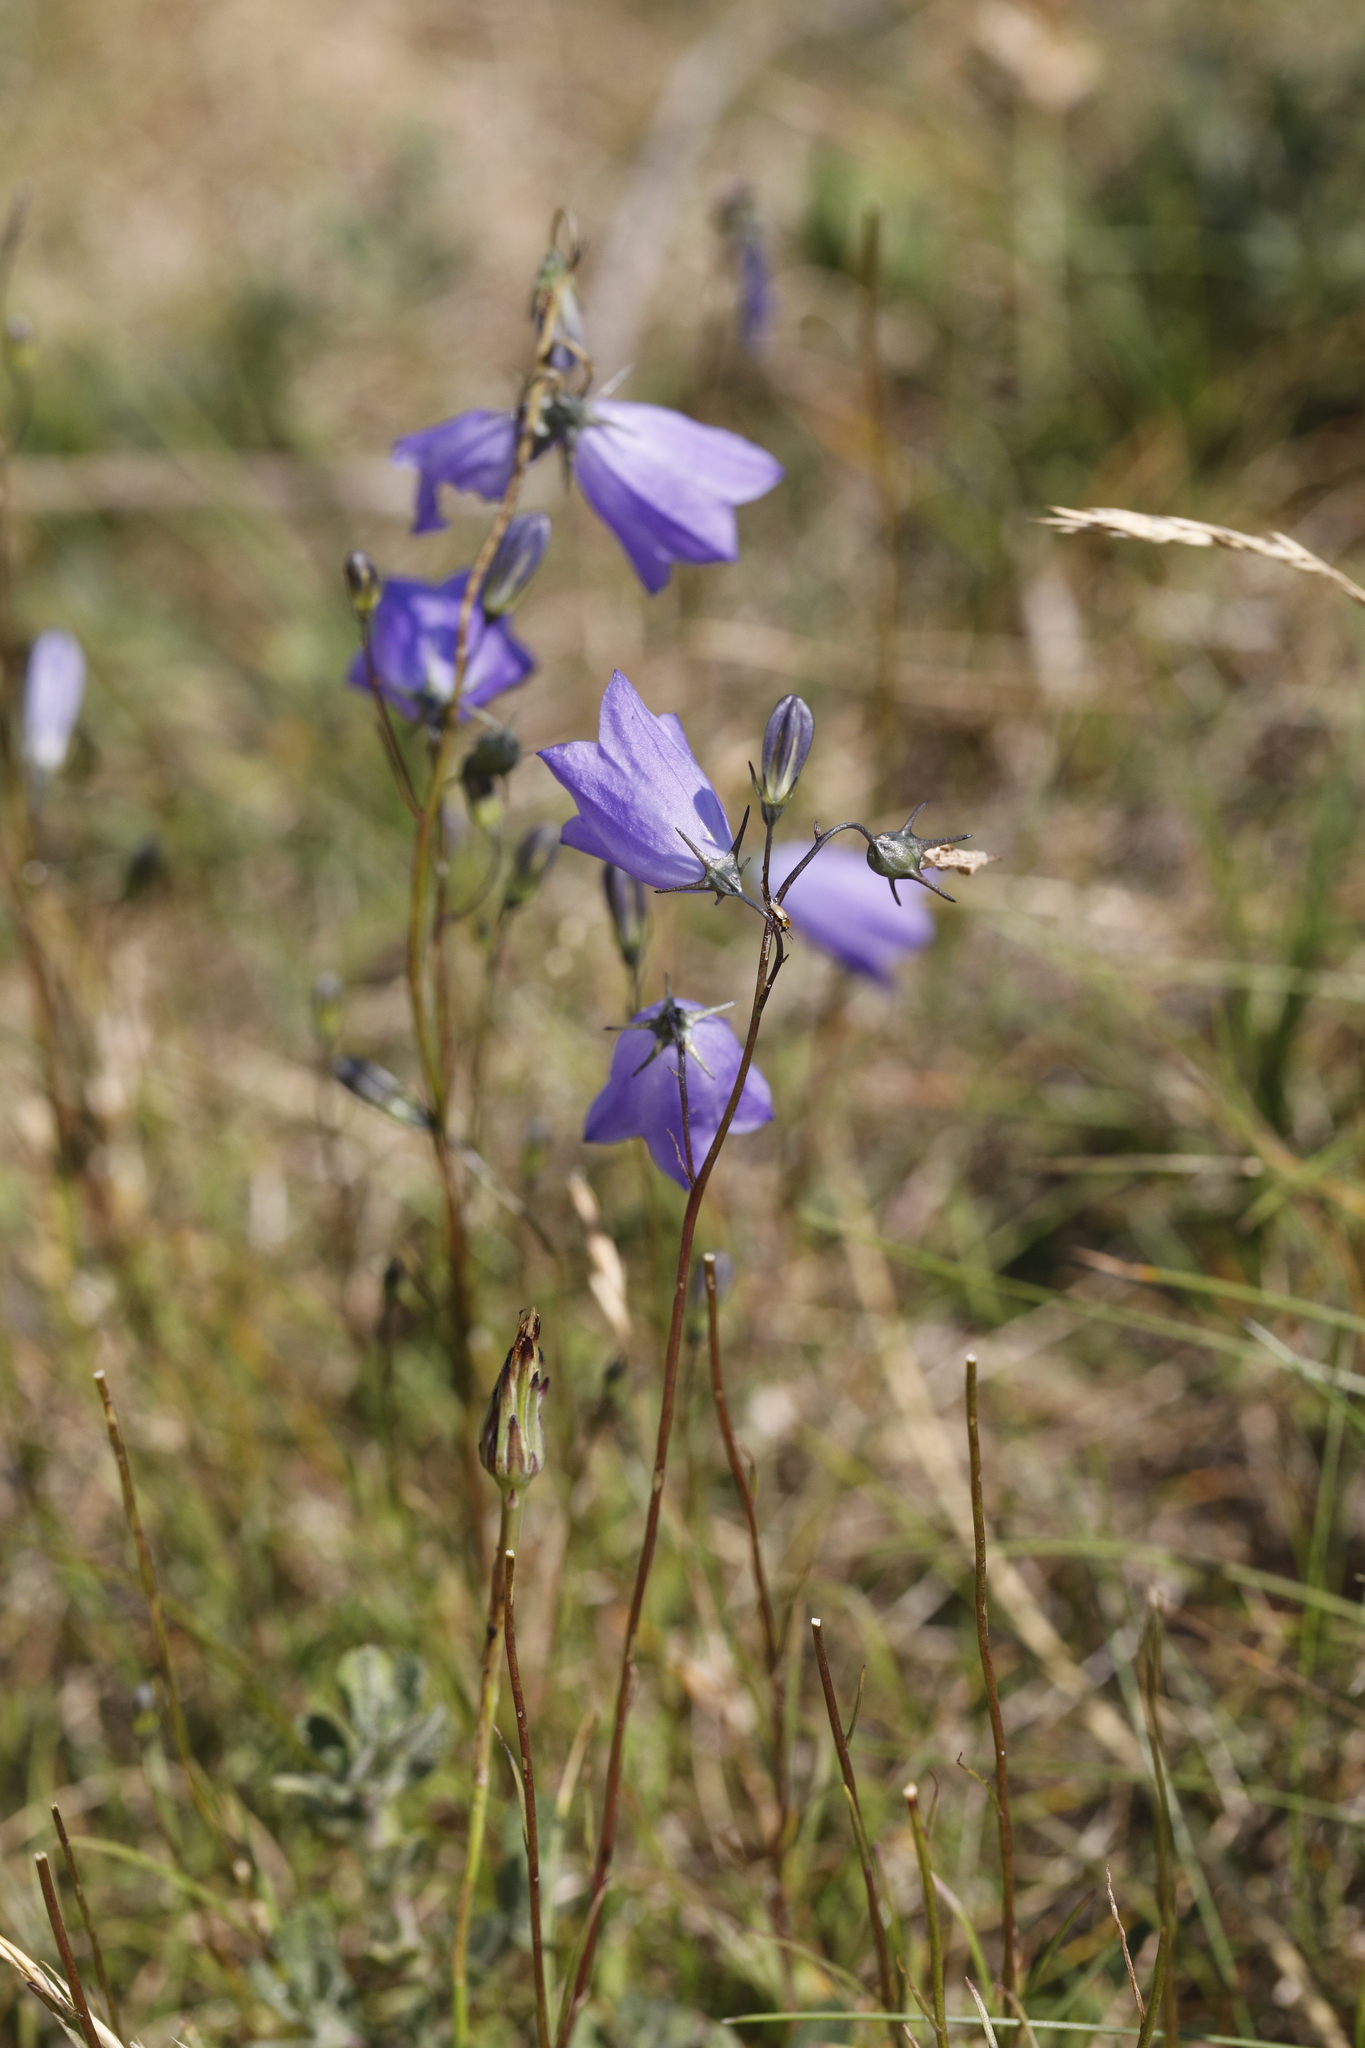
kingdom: Plantae
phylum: Tracheophyta
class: Magnoliopsida
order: Asterales
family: Campanulaceae
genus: Campanula
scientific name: Campanula rotundifolia
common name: Harebell
